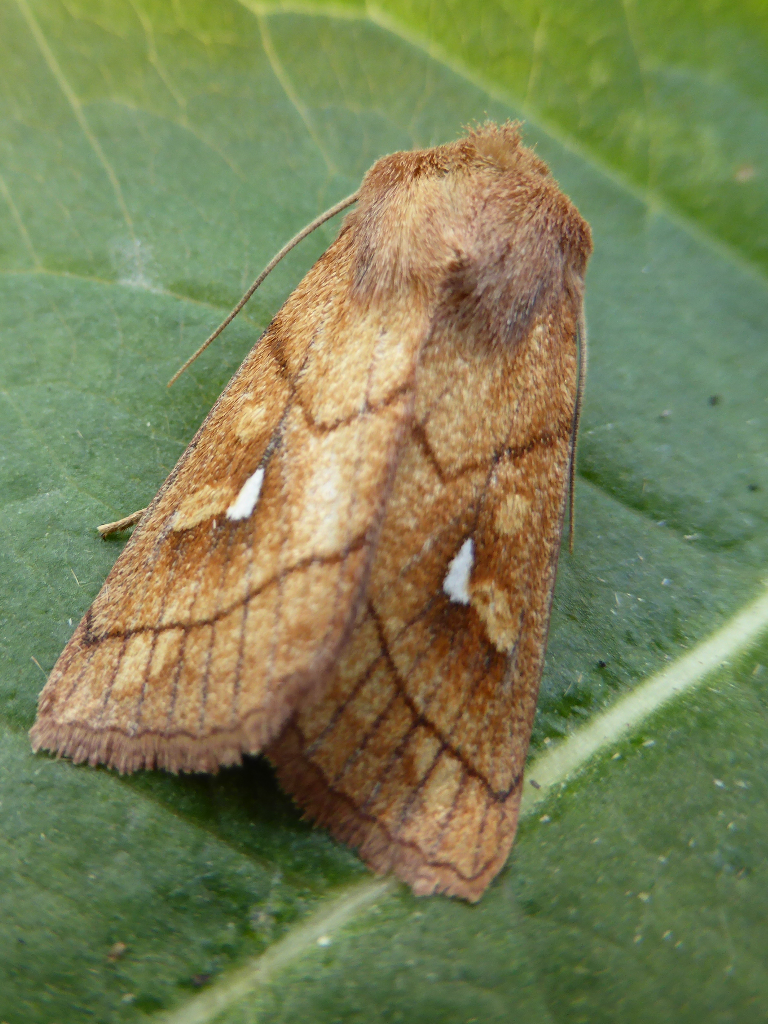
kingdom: Animalia
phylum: Arthropoda
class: Insecta
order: Lepidoptera
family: Noctuidae
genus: Mythimna
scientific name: Mythimna conigera
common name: Brown-line bright-eye
